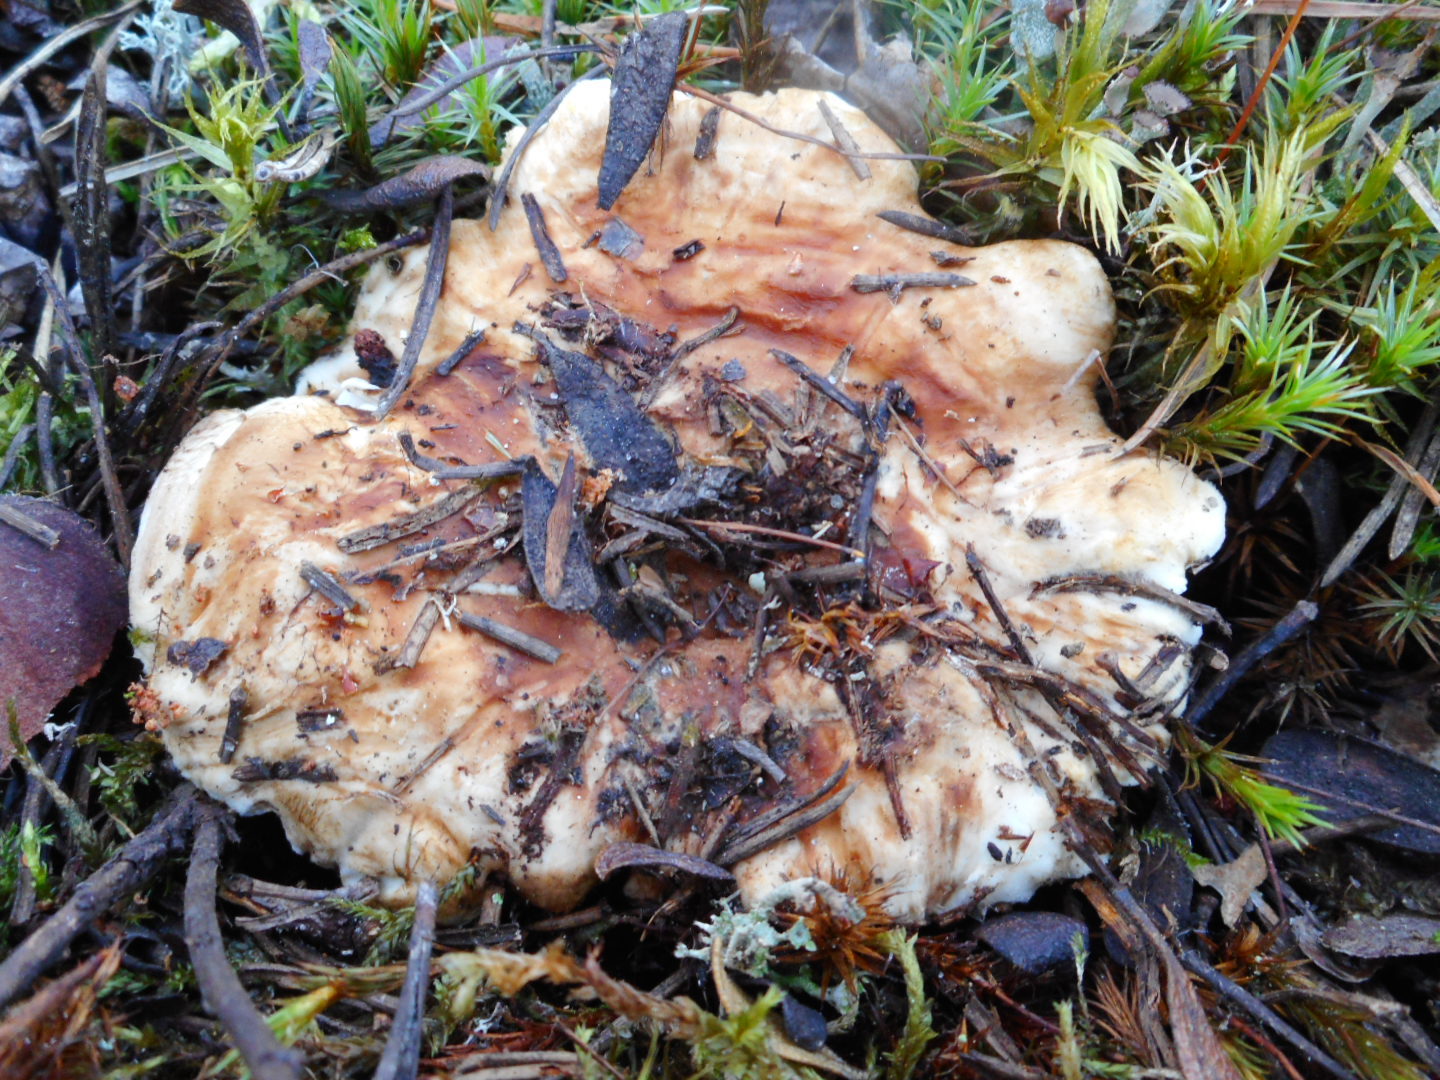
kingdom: Fungi
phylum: Basidiomycota
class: Agaricomycetes
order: Thelephorales
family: Thelephoraceae
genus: Phellodon
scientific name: Phellodon fuligineoalbus
